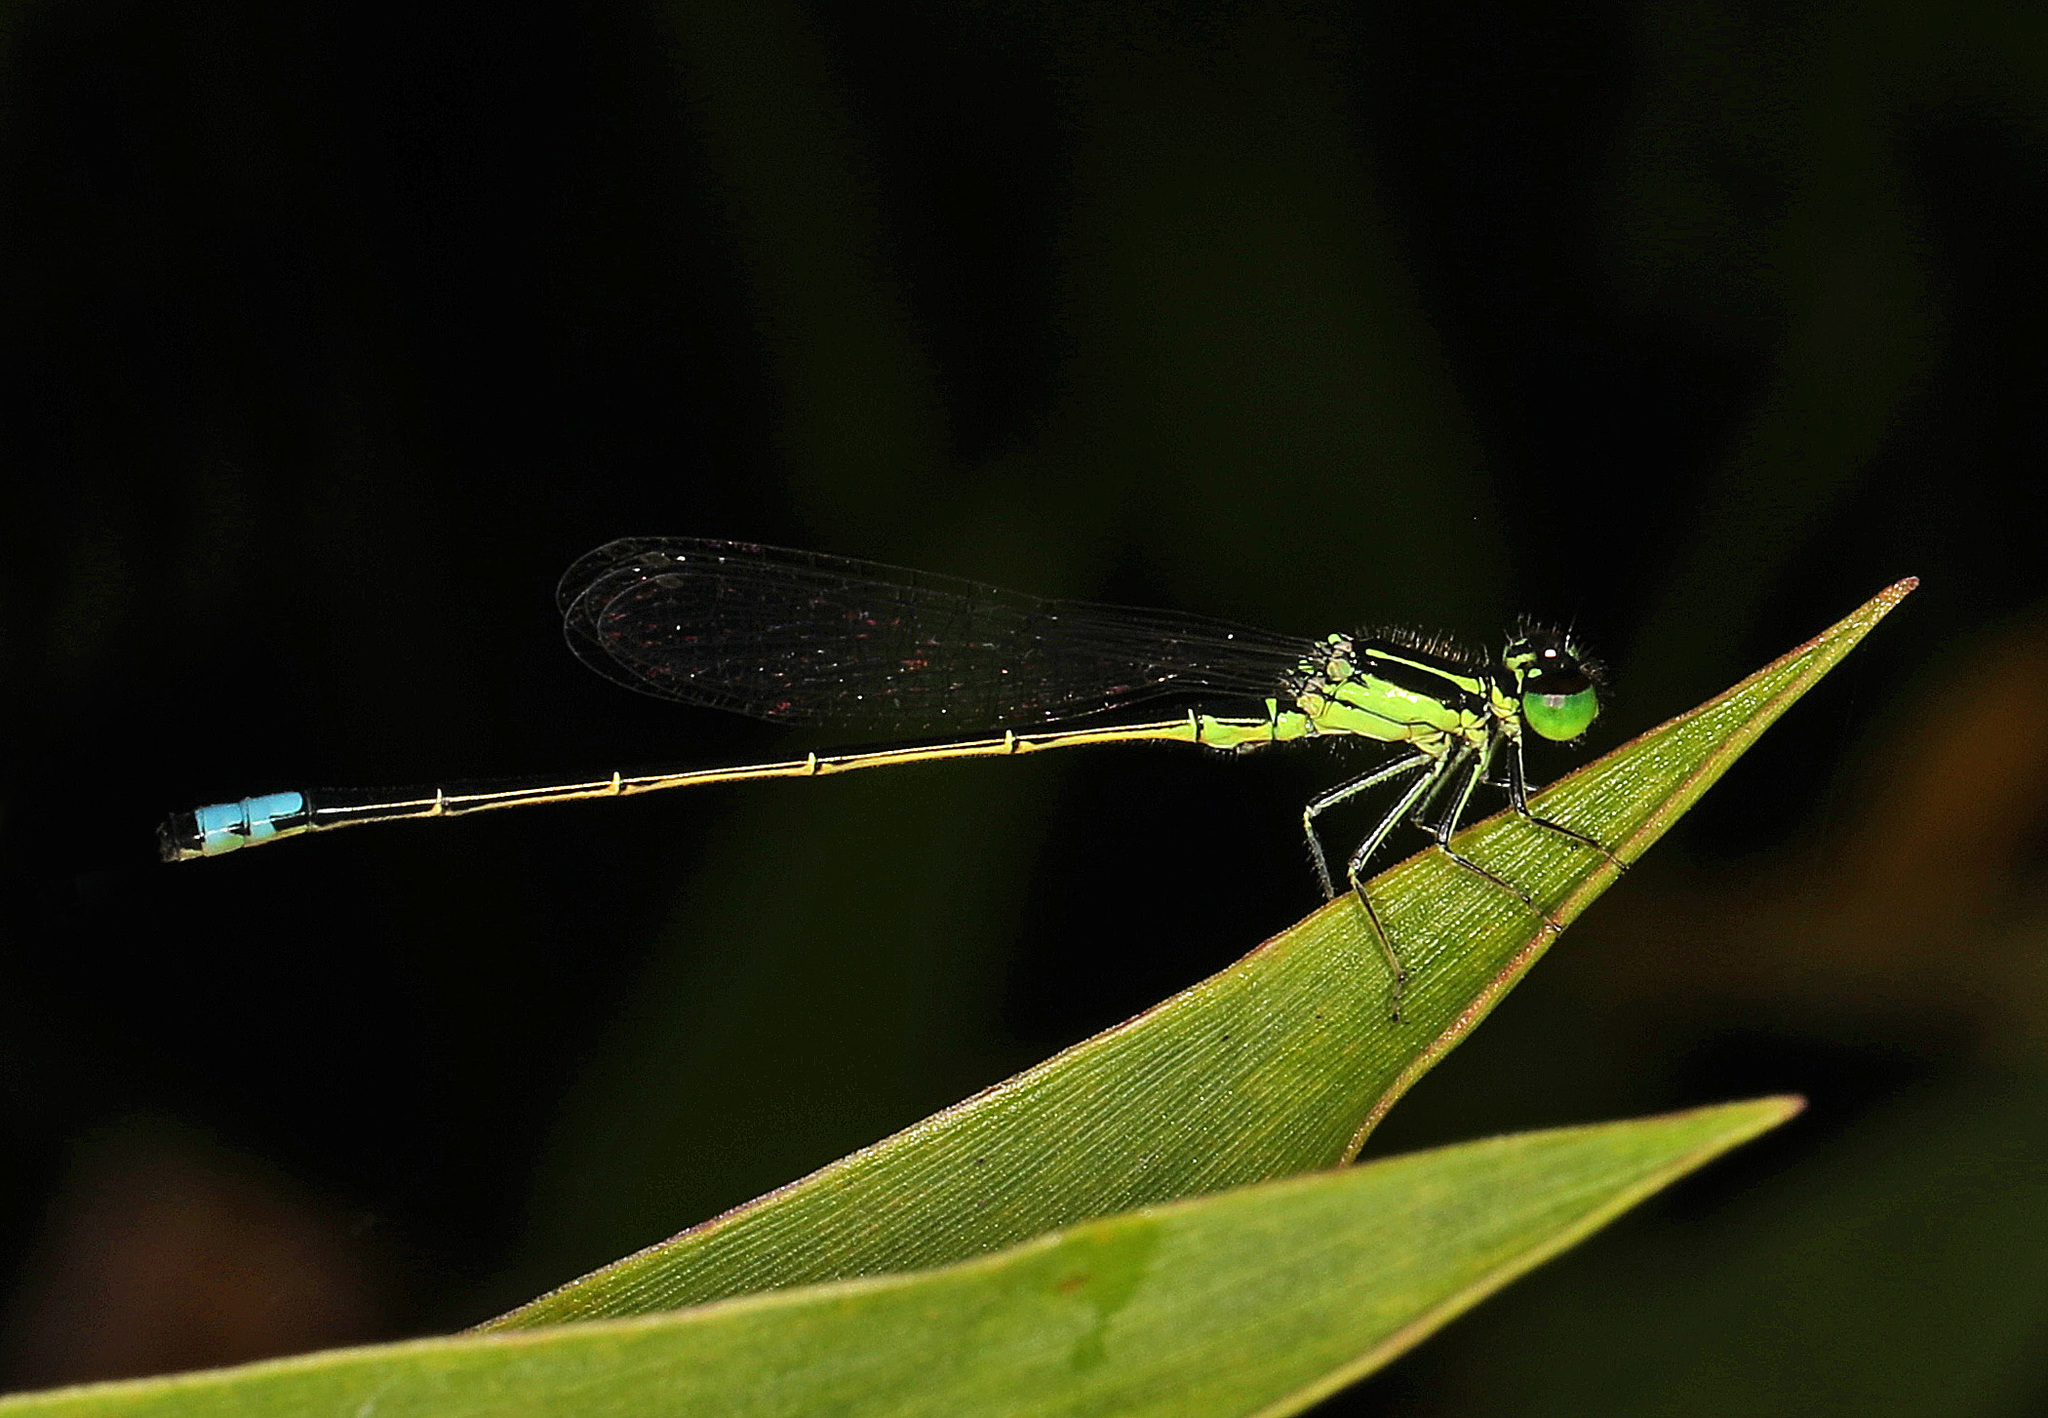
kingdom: Animalia
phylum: Arthropoda
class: Insecta
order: Odonata
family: Coenagrionidae
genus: Ischnura
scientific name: Ischnura verticalis
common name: Eastern forktail
